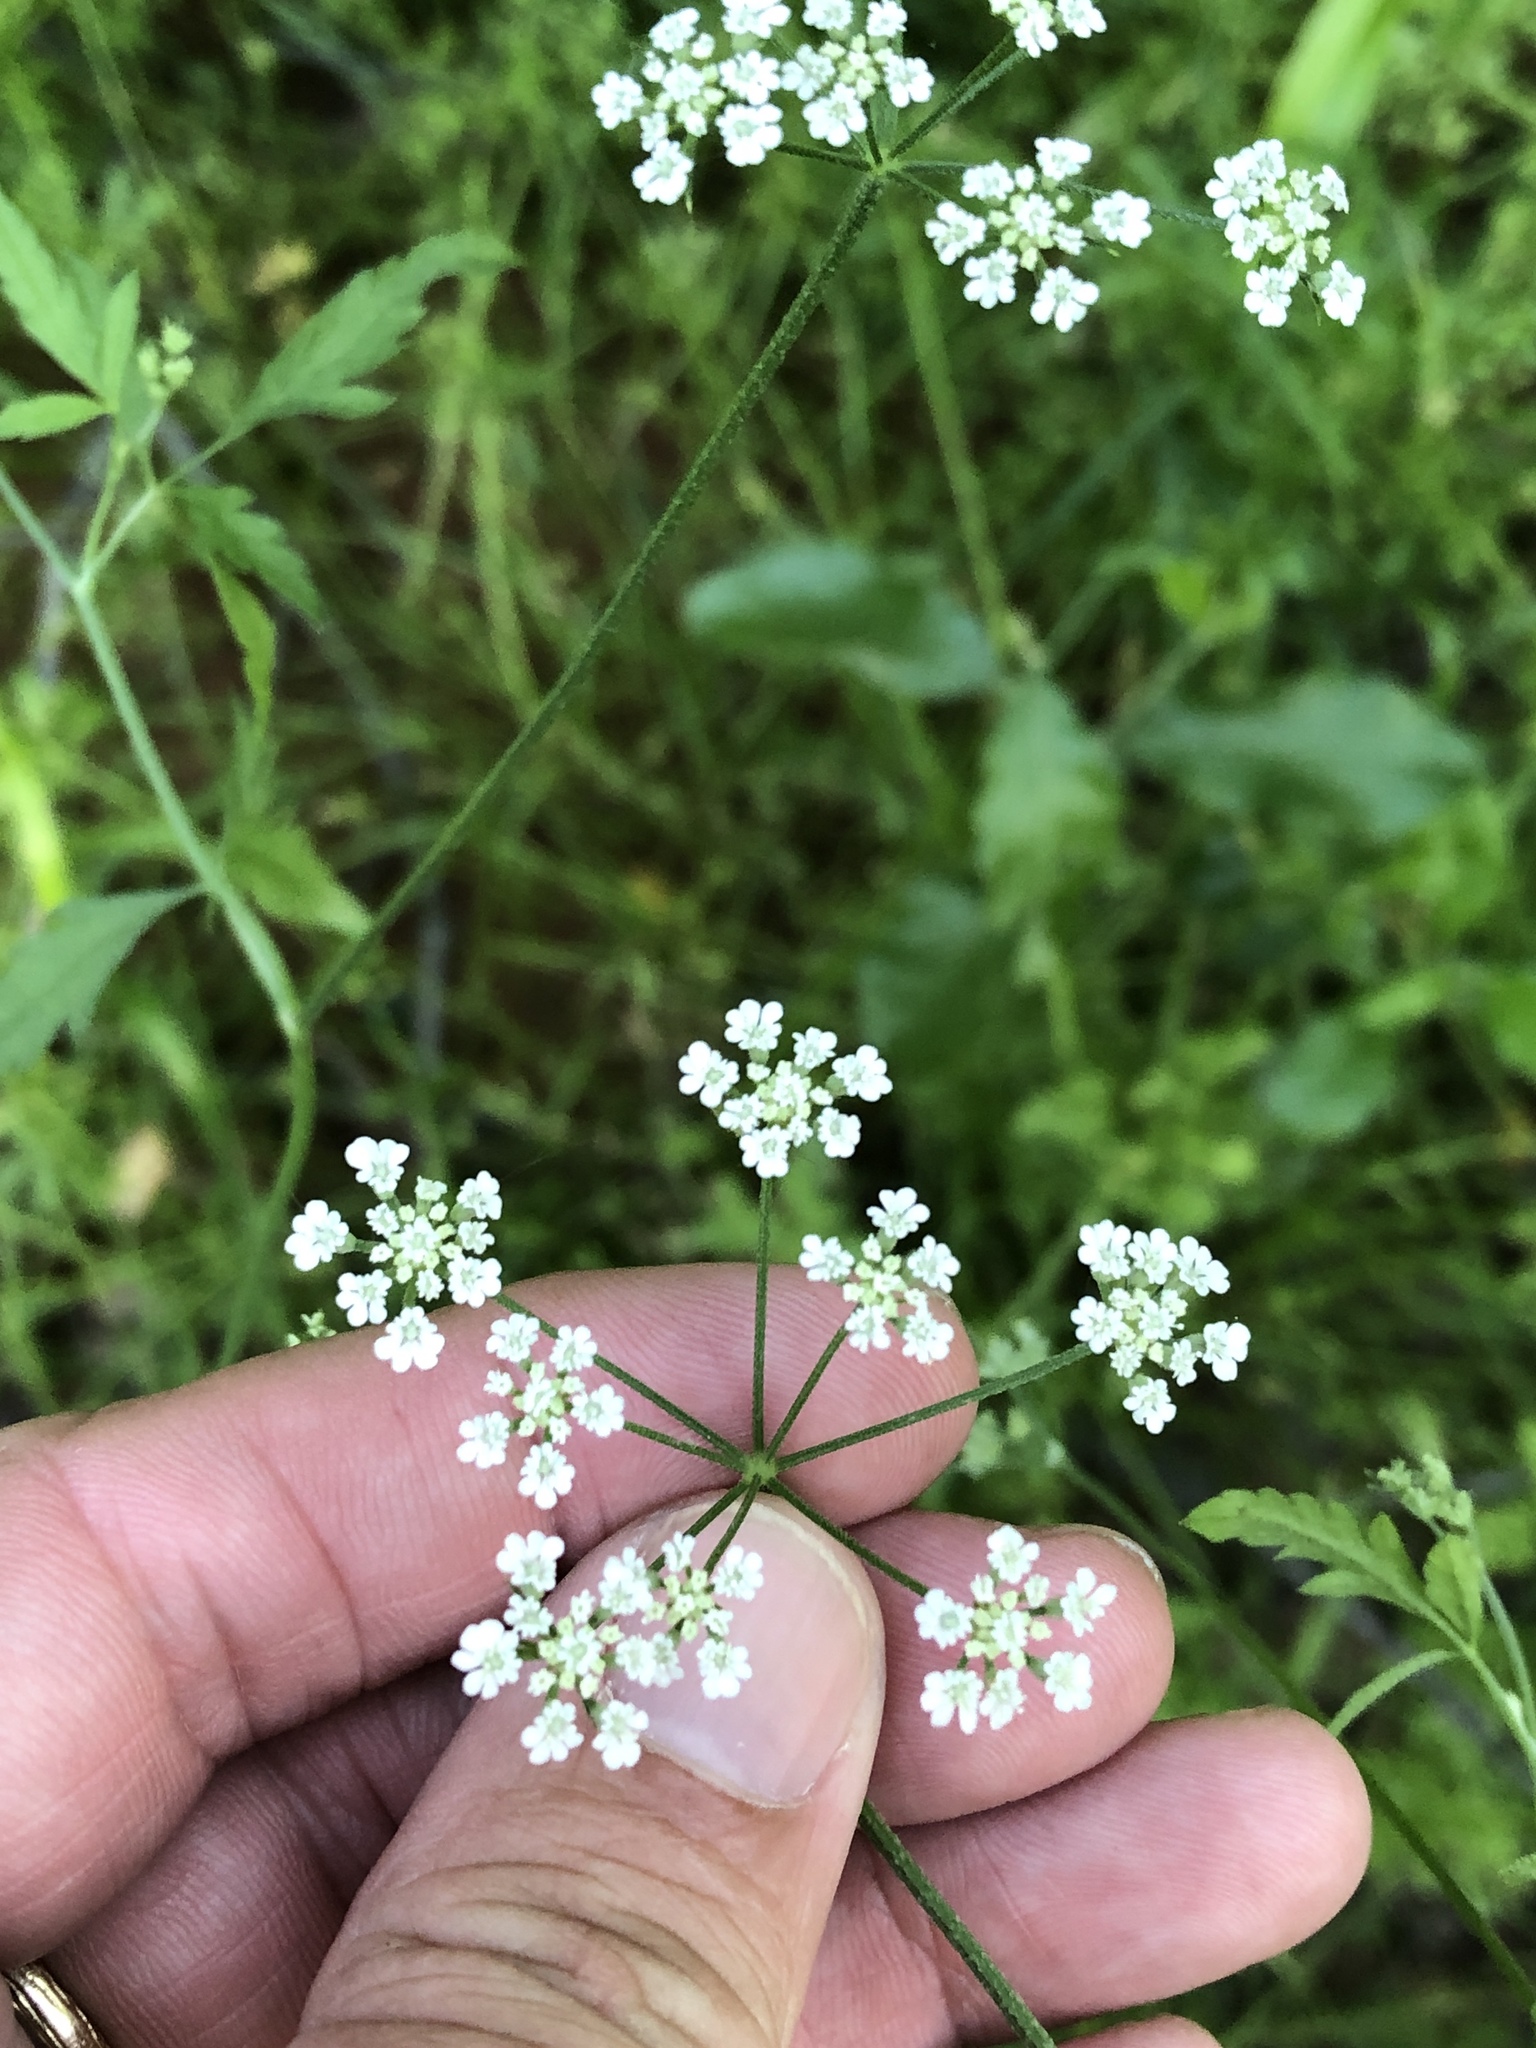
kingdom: Plantae
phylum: Tracheophyta
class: Magnoliopsida
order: Apiales
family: Apiaceae
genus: Torilis
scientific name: Torilis arvensis
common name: Spreading hedge-parsley
